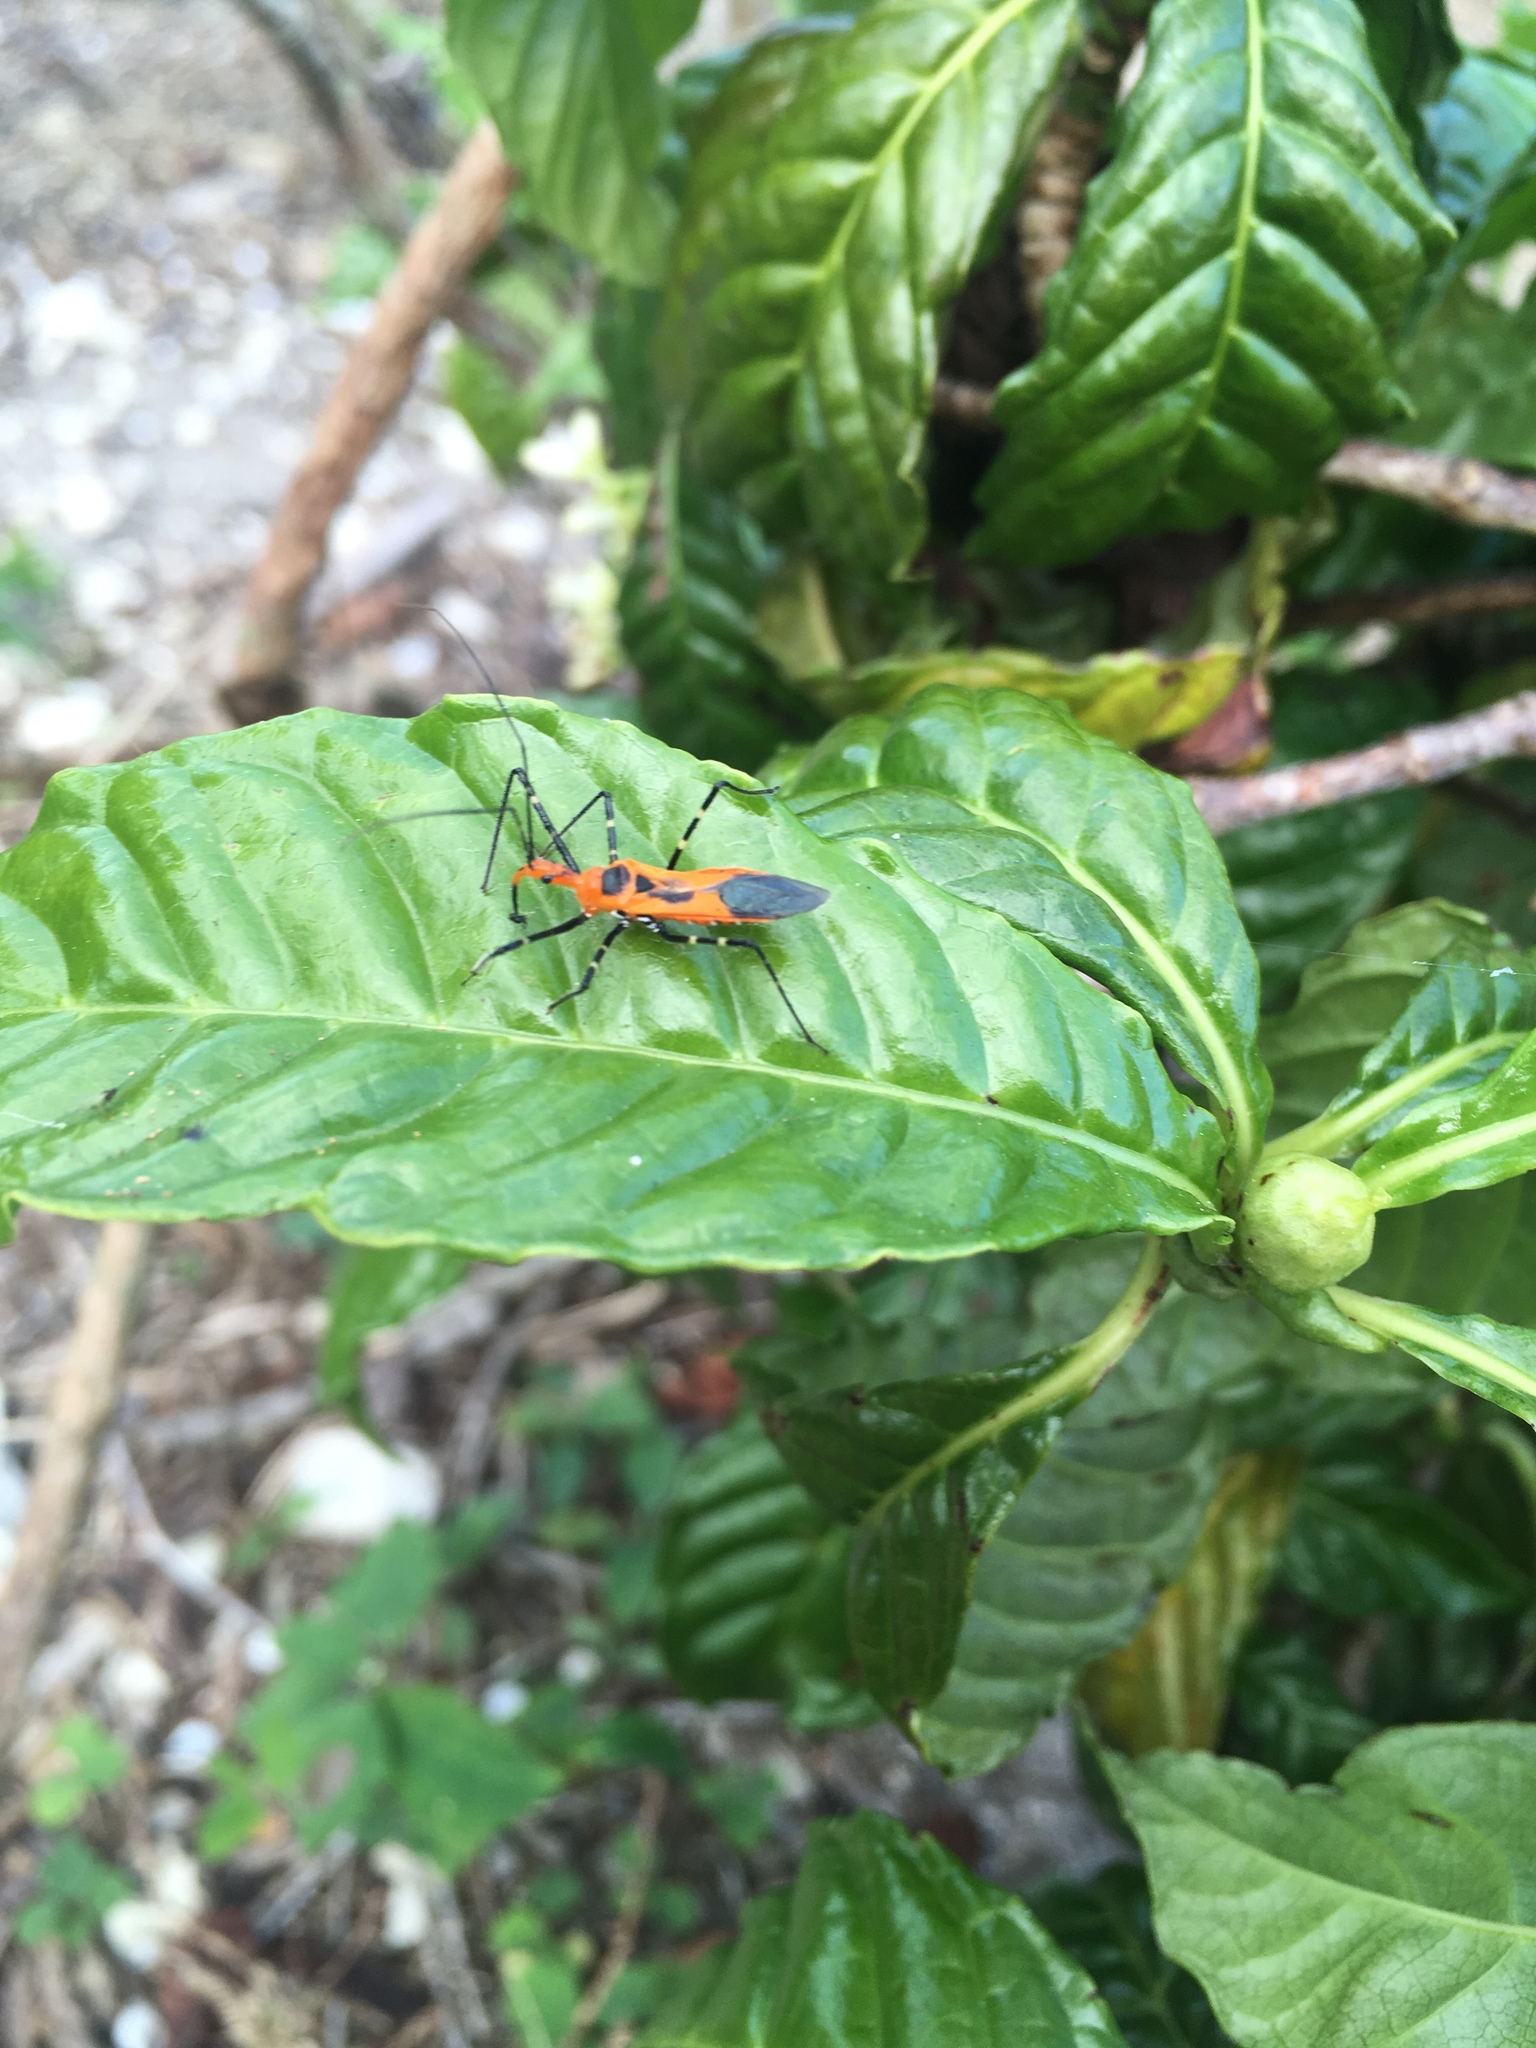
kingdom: Animalia
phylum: Arthropoda
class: Insecta
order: Hemiptera
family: Reduviidae
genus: Zelus
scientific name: Zelus longipes
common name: Milkweed assassin bug
